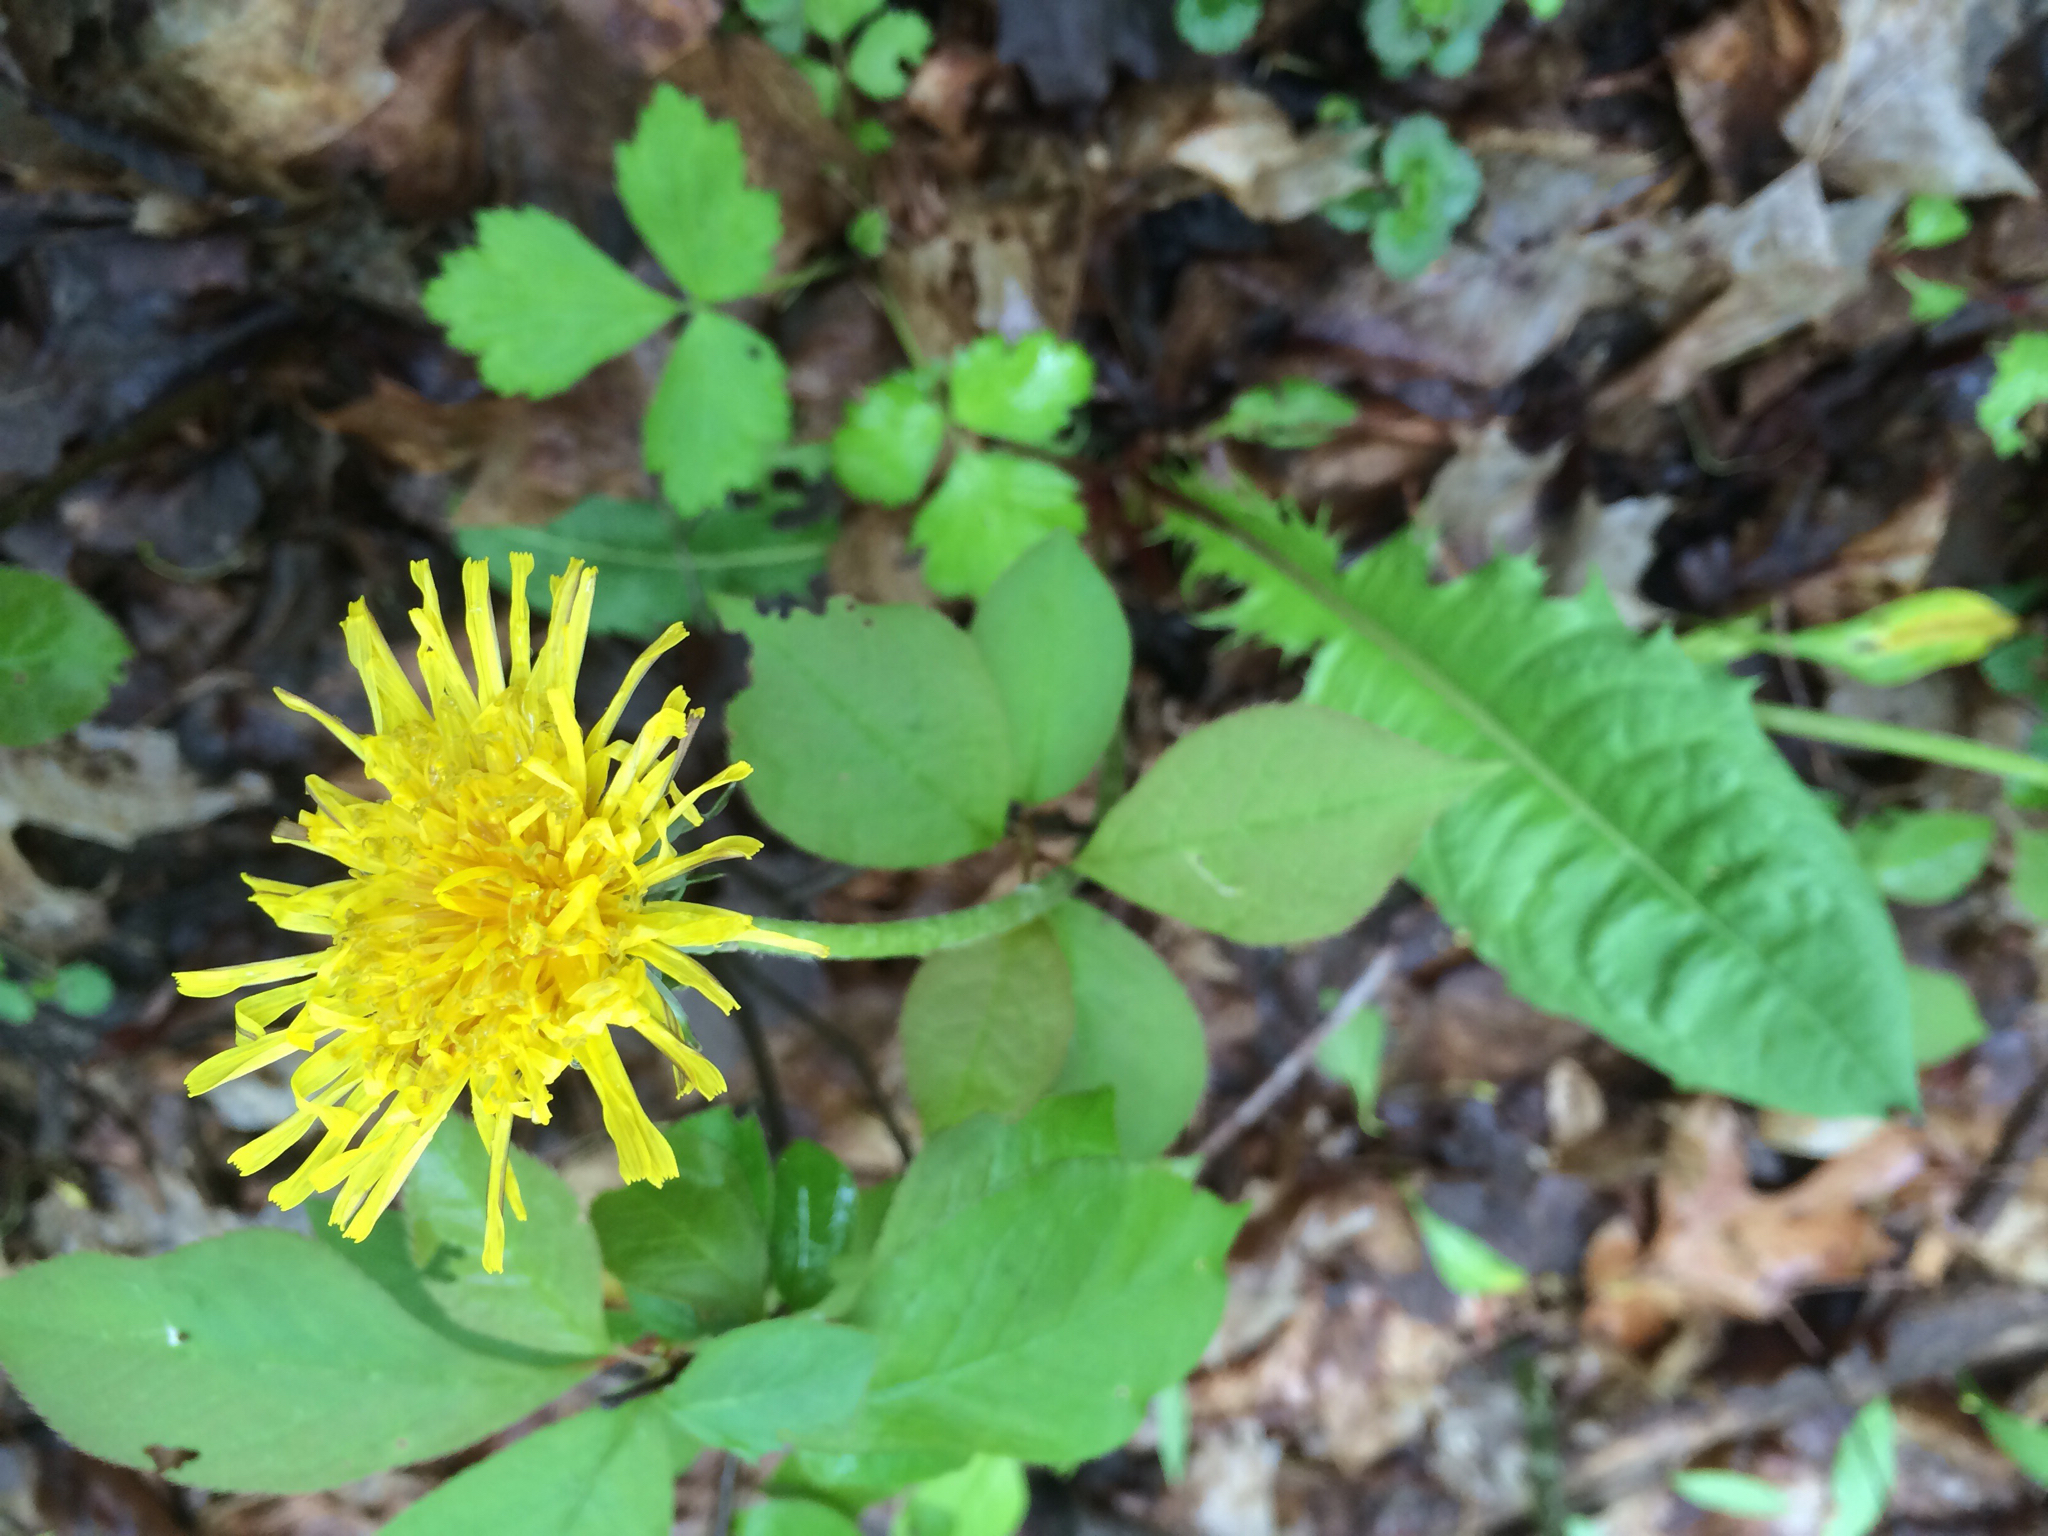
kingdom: Plantae
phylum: Tracheophyta
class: Magnoliopsida
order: Asterales
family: Asteraceae
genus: Taraxacum
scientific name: Taraxacum officinale
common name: Common dandelion
